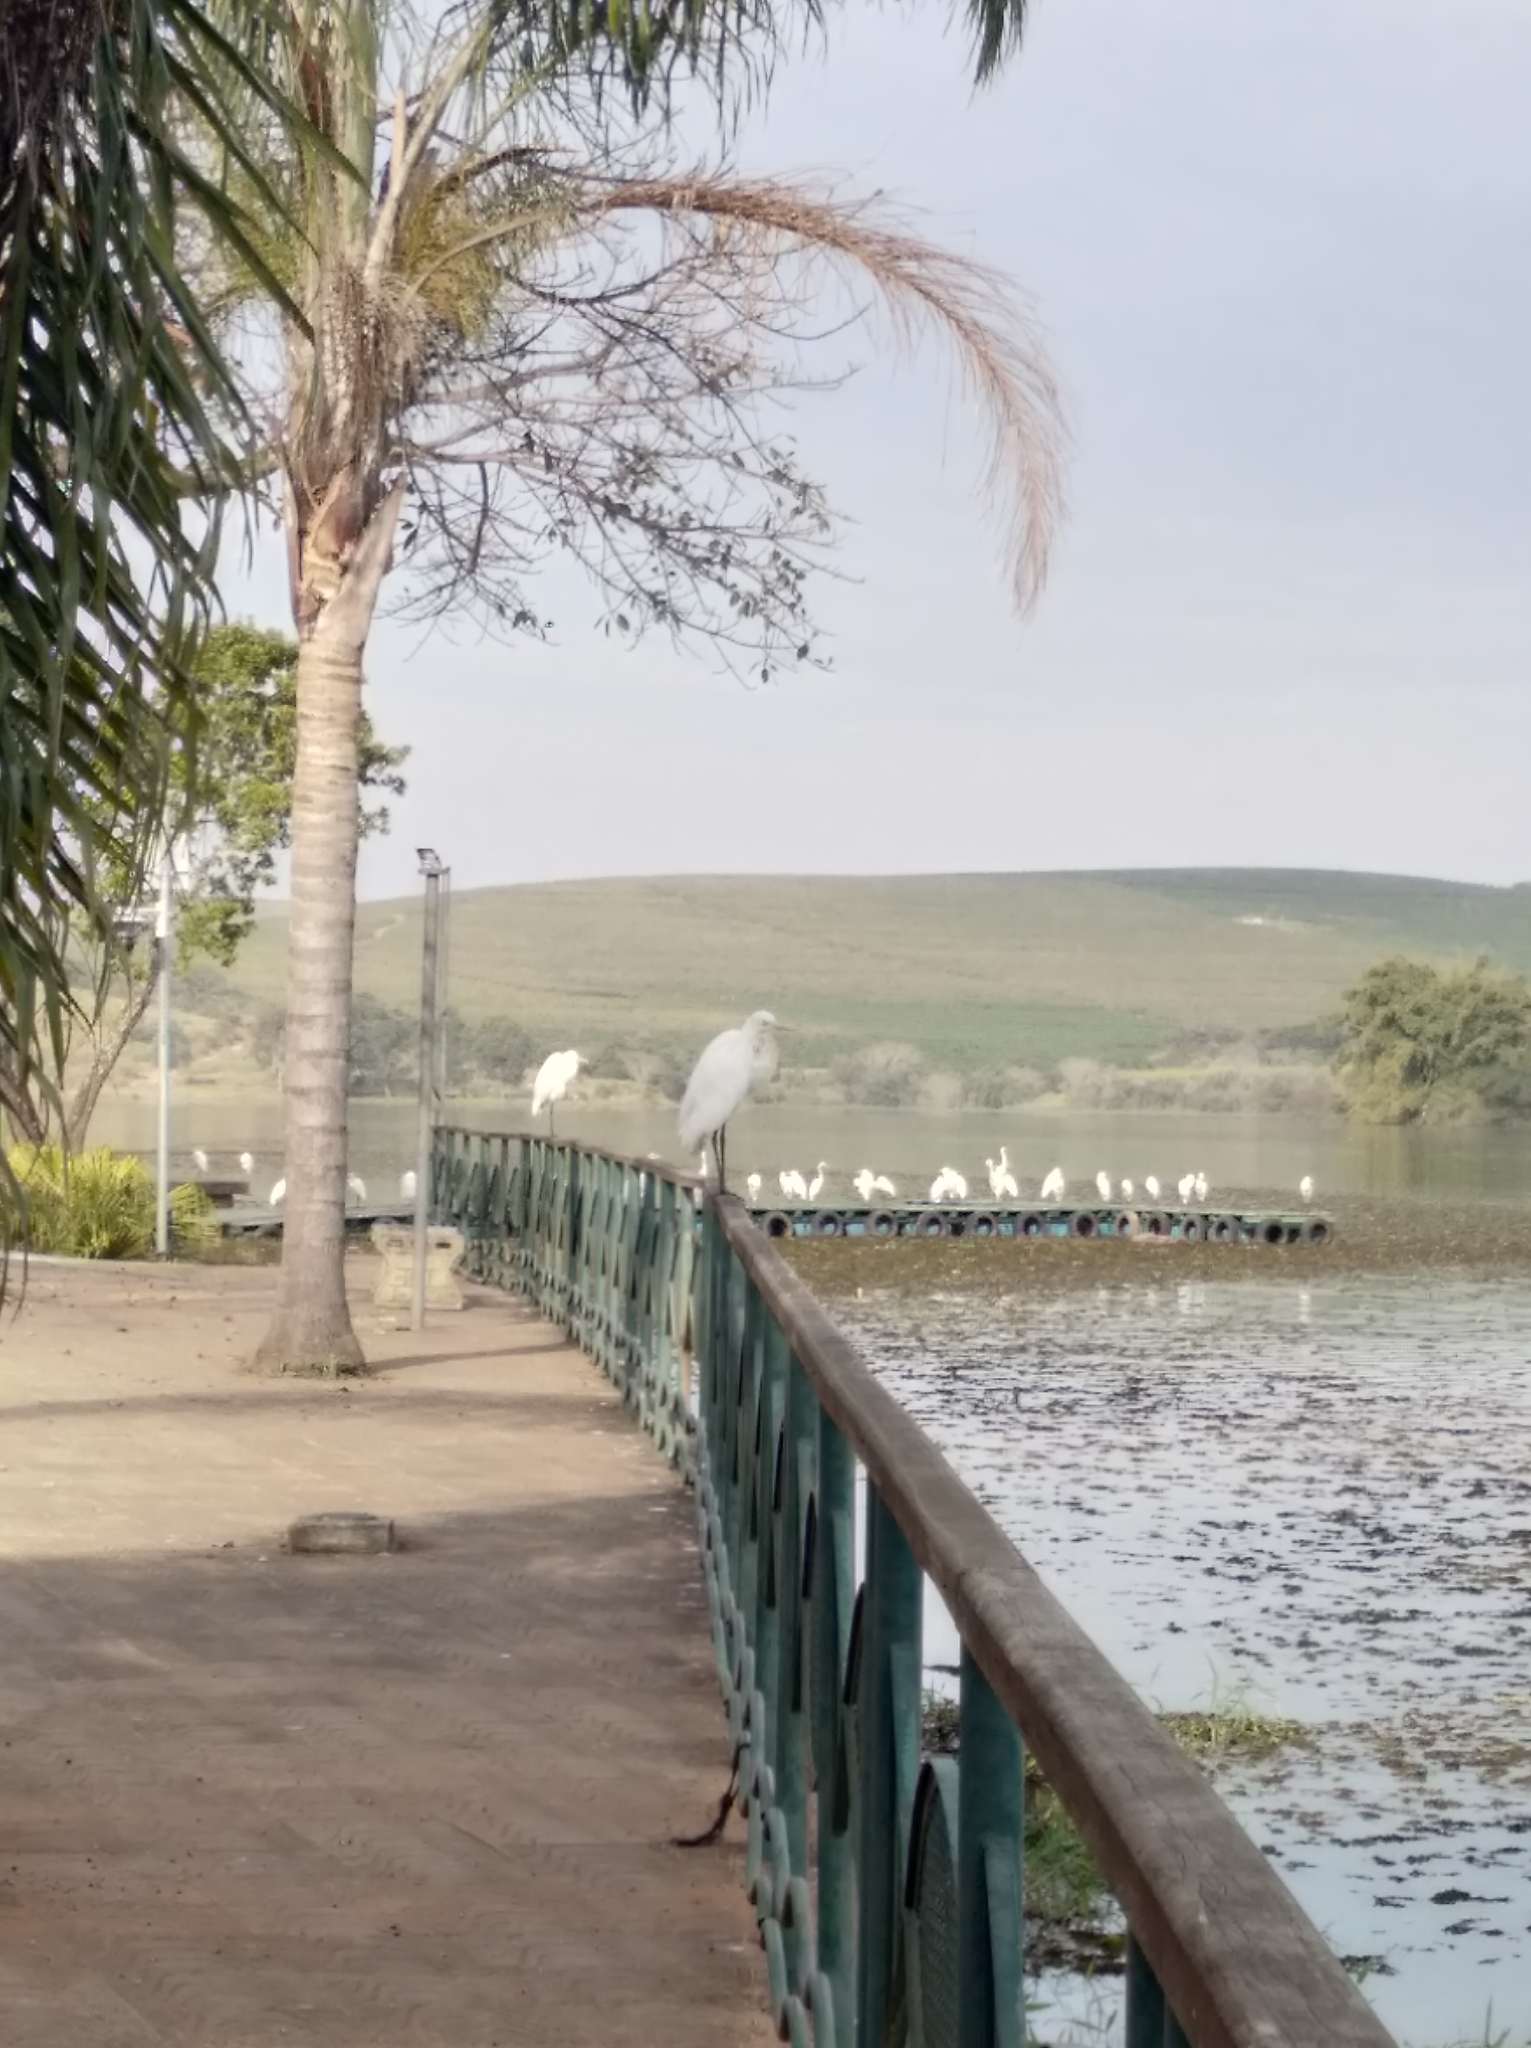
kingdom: Animalia
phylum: Chordata
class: Aves
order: Pelecaniformes
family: Ardeidae
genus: Ardea
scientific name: Ardea alba
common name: Great egret
